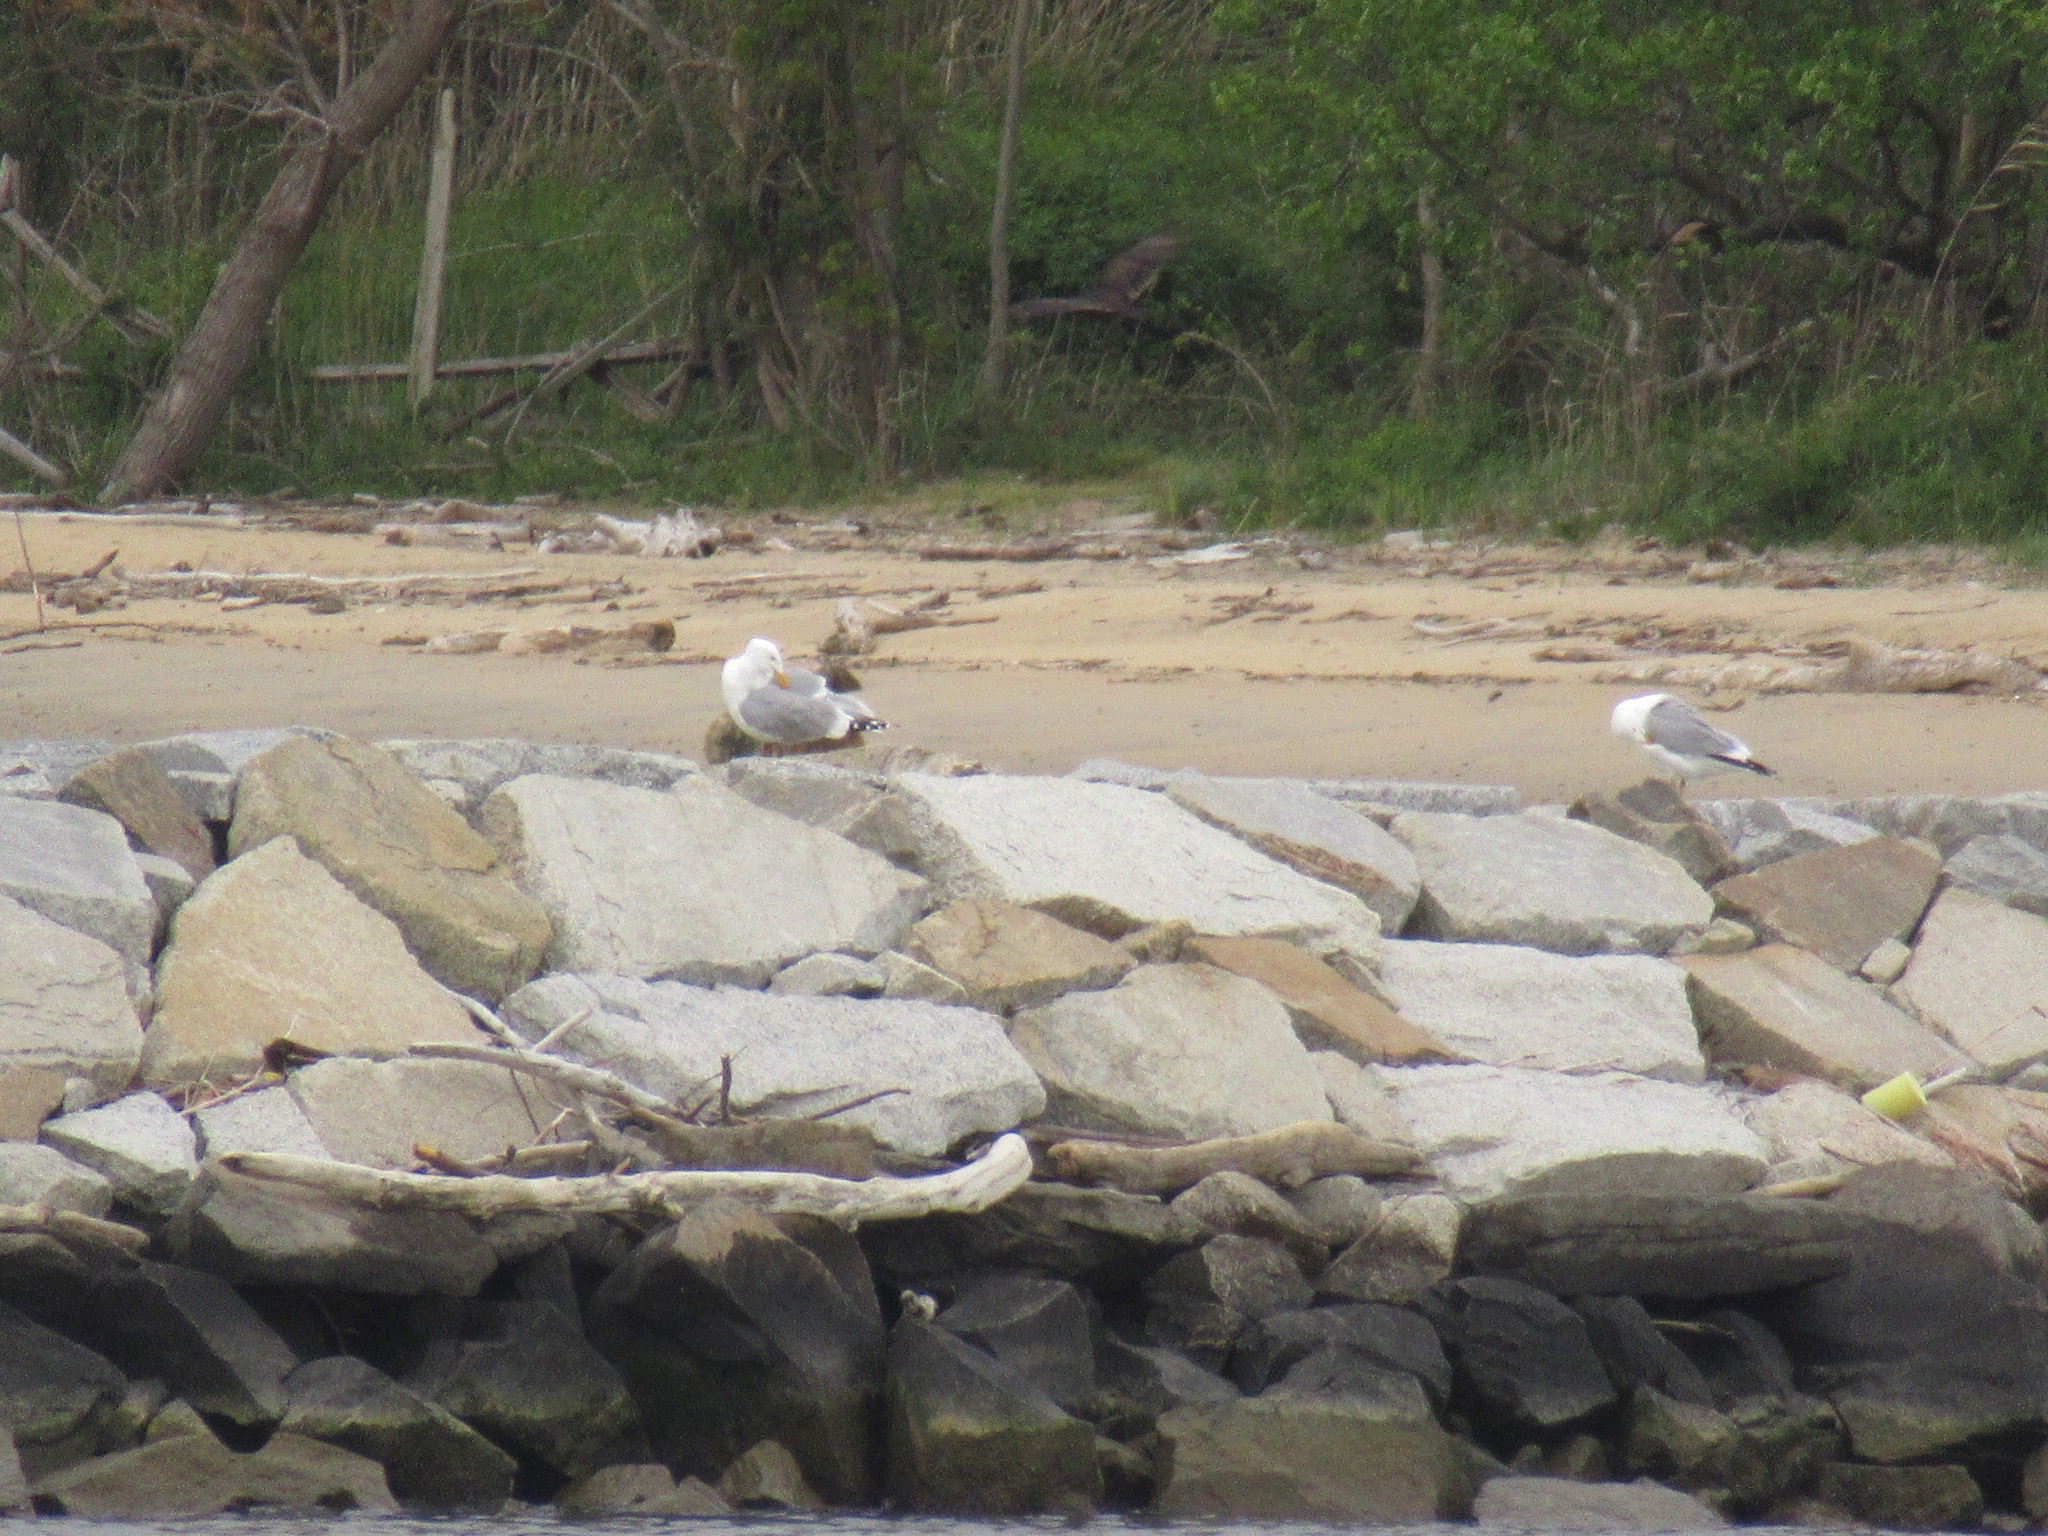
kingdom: Animalia
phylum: Chordata
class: Aves
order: Charadriiformes
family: Laridae
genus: Larus
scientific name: Larus argentatus
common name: Herring gull
